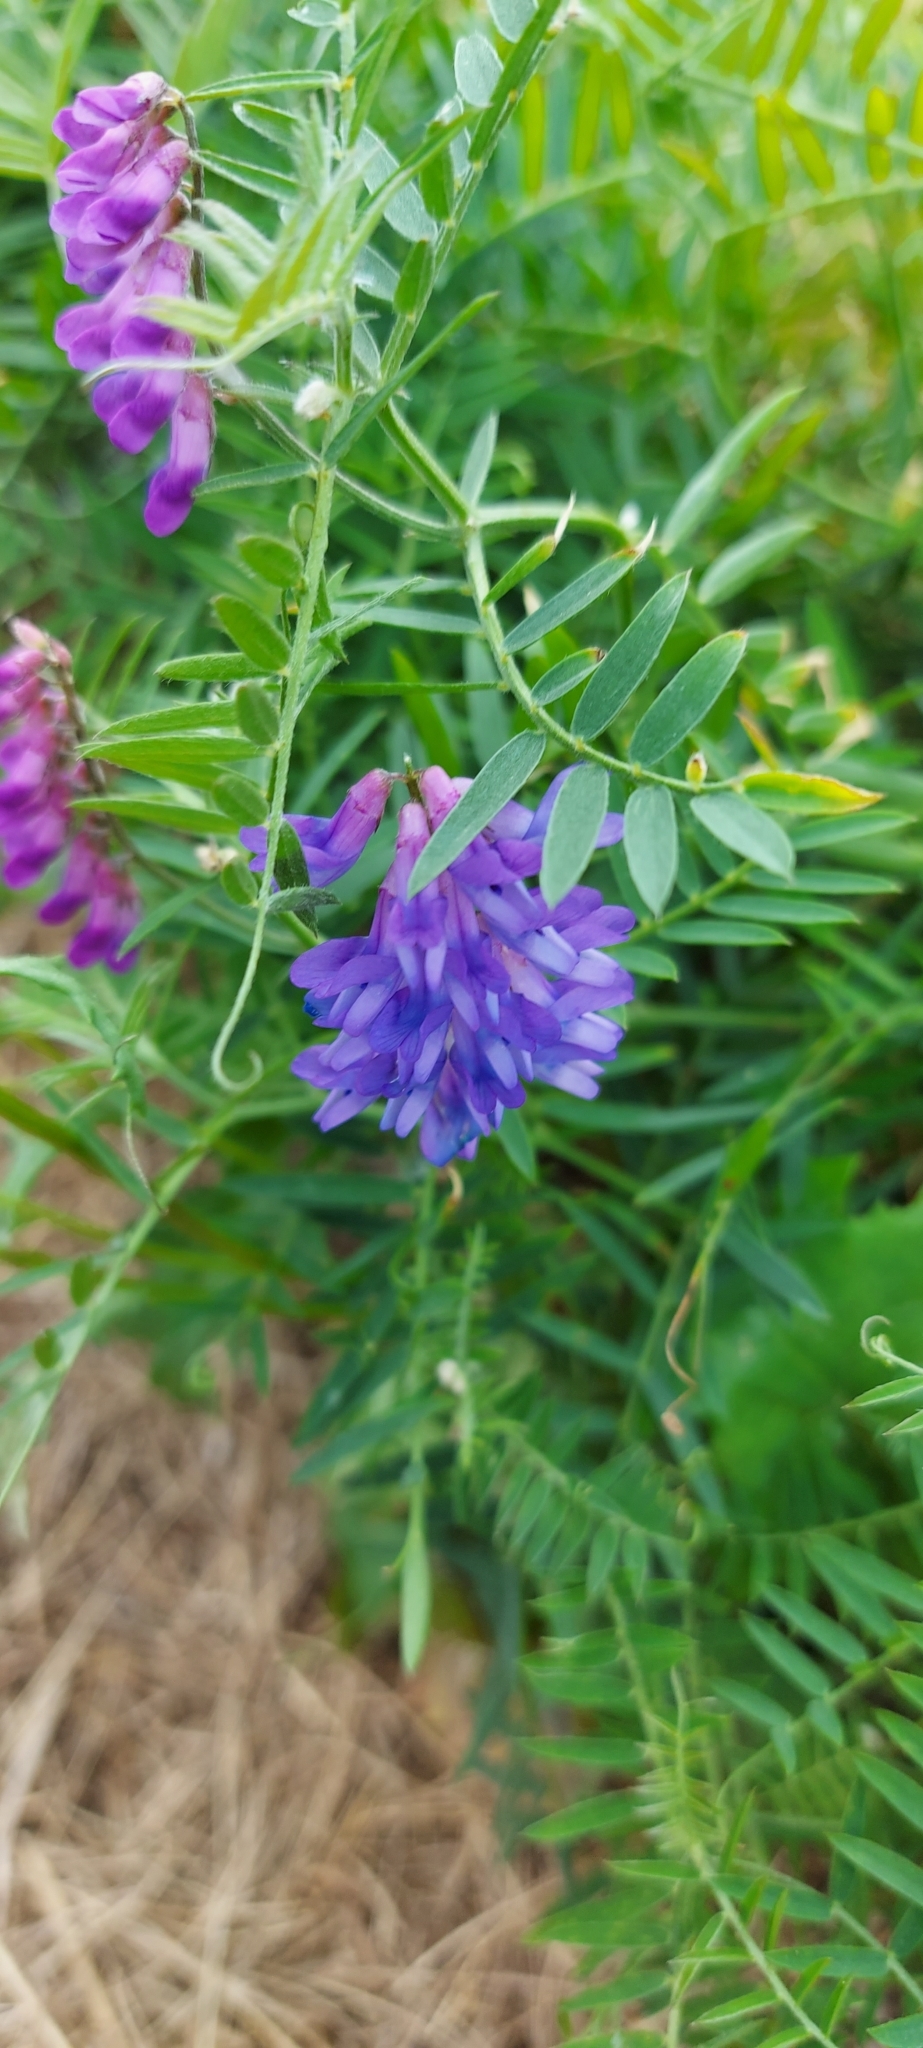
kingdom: Plantae
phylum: Tracheophyta
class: Magnoliopsida
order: Fabales
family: Fabaceae
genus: Vicia
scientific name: Vicia cracca
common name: Bird vetch
